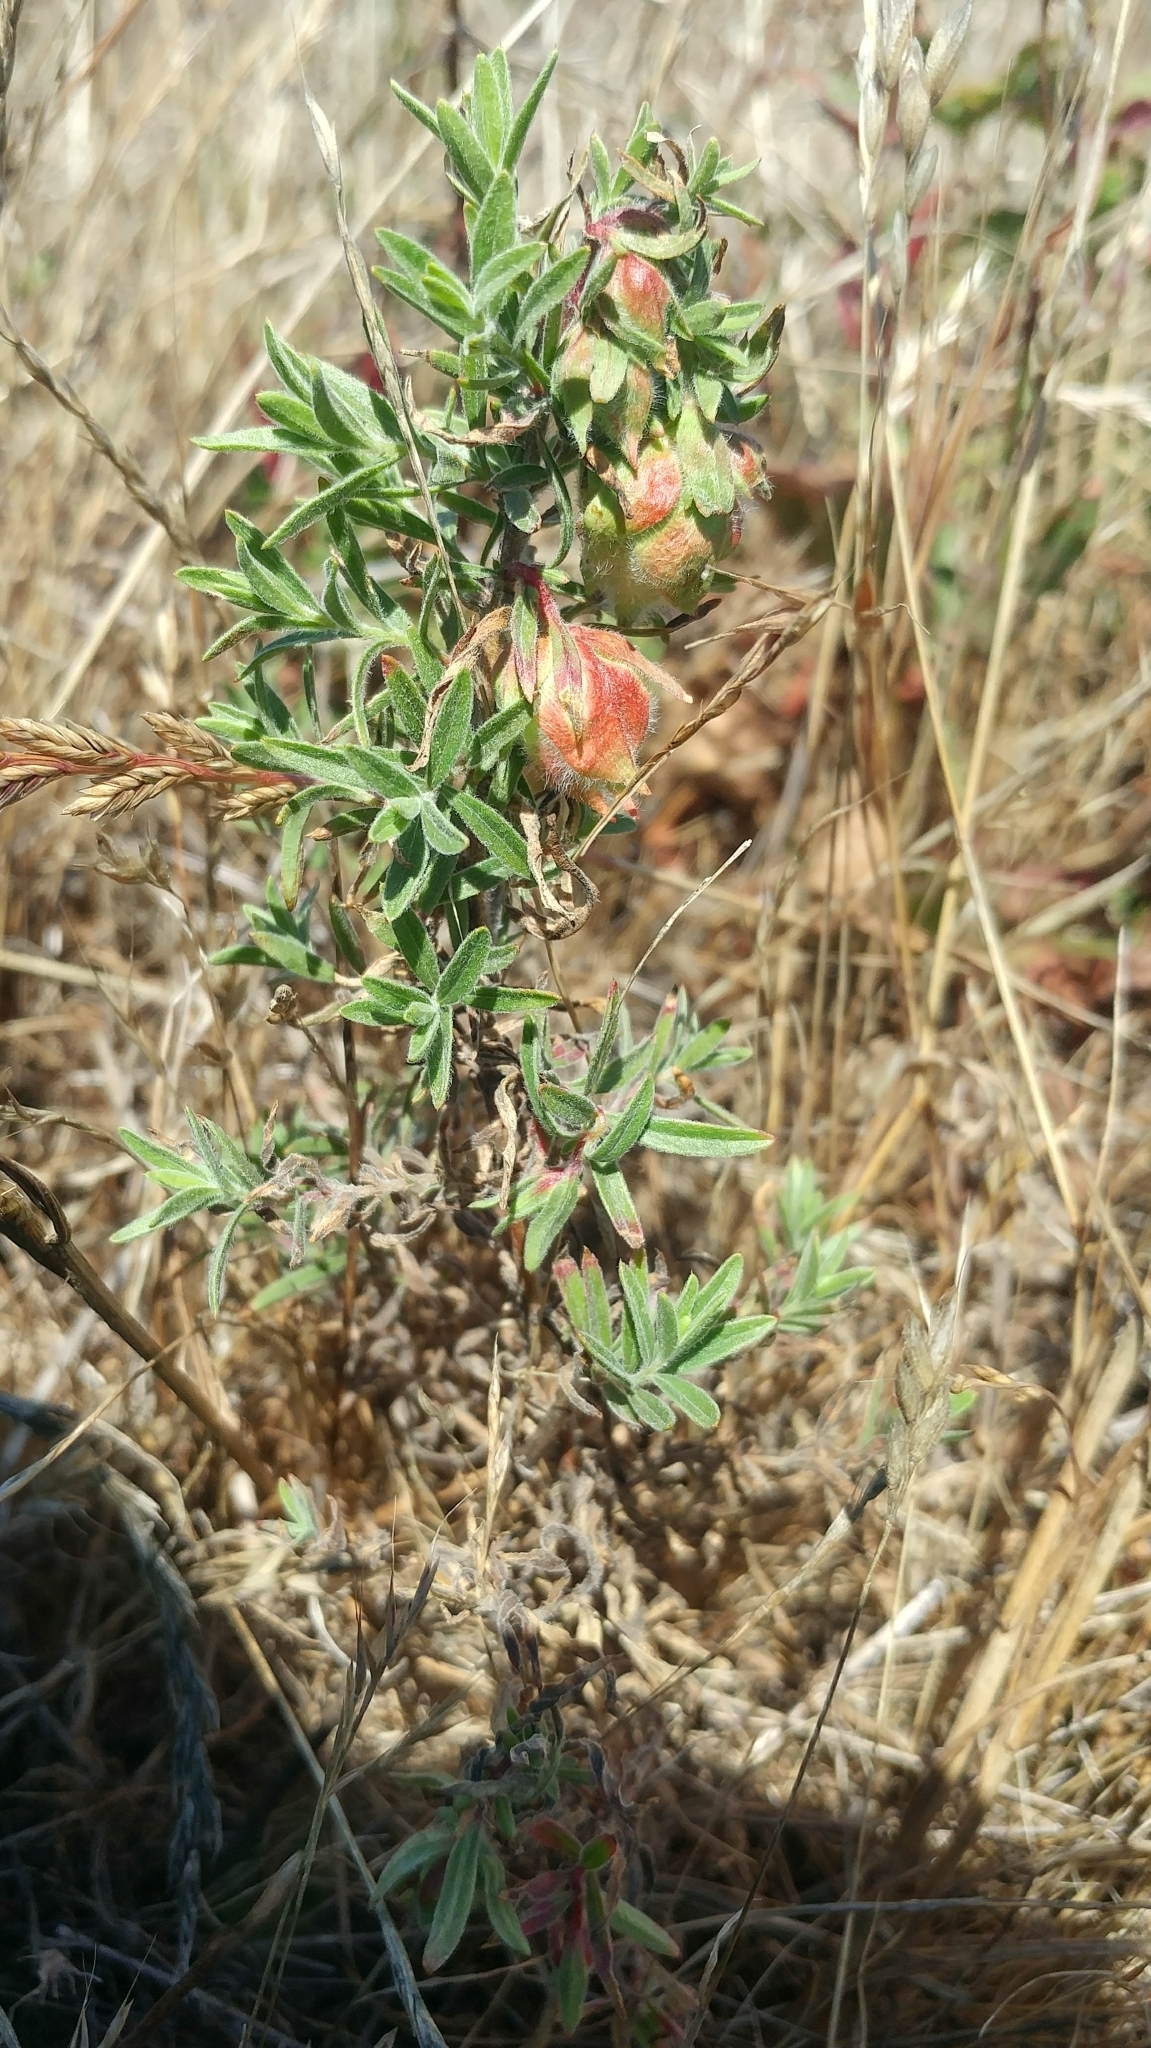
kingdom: Plantae
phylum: Tracheophyta
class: Magnoliopsida
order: Myrtales
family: Onagraceae
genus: Epilobium
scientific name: Epilobium canum
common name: California-fuchsia
